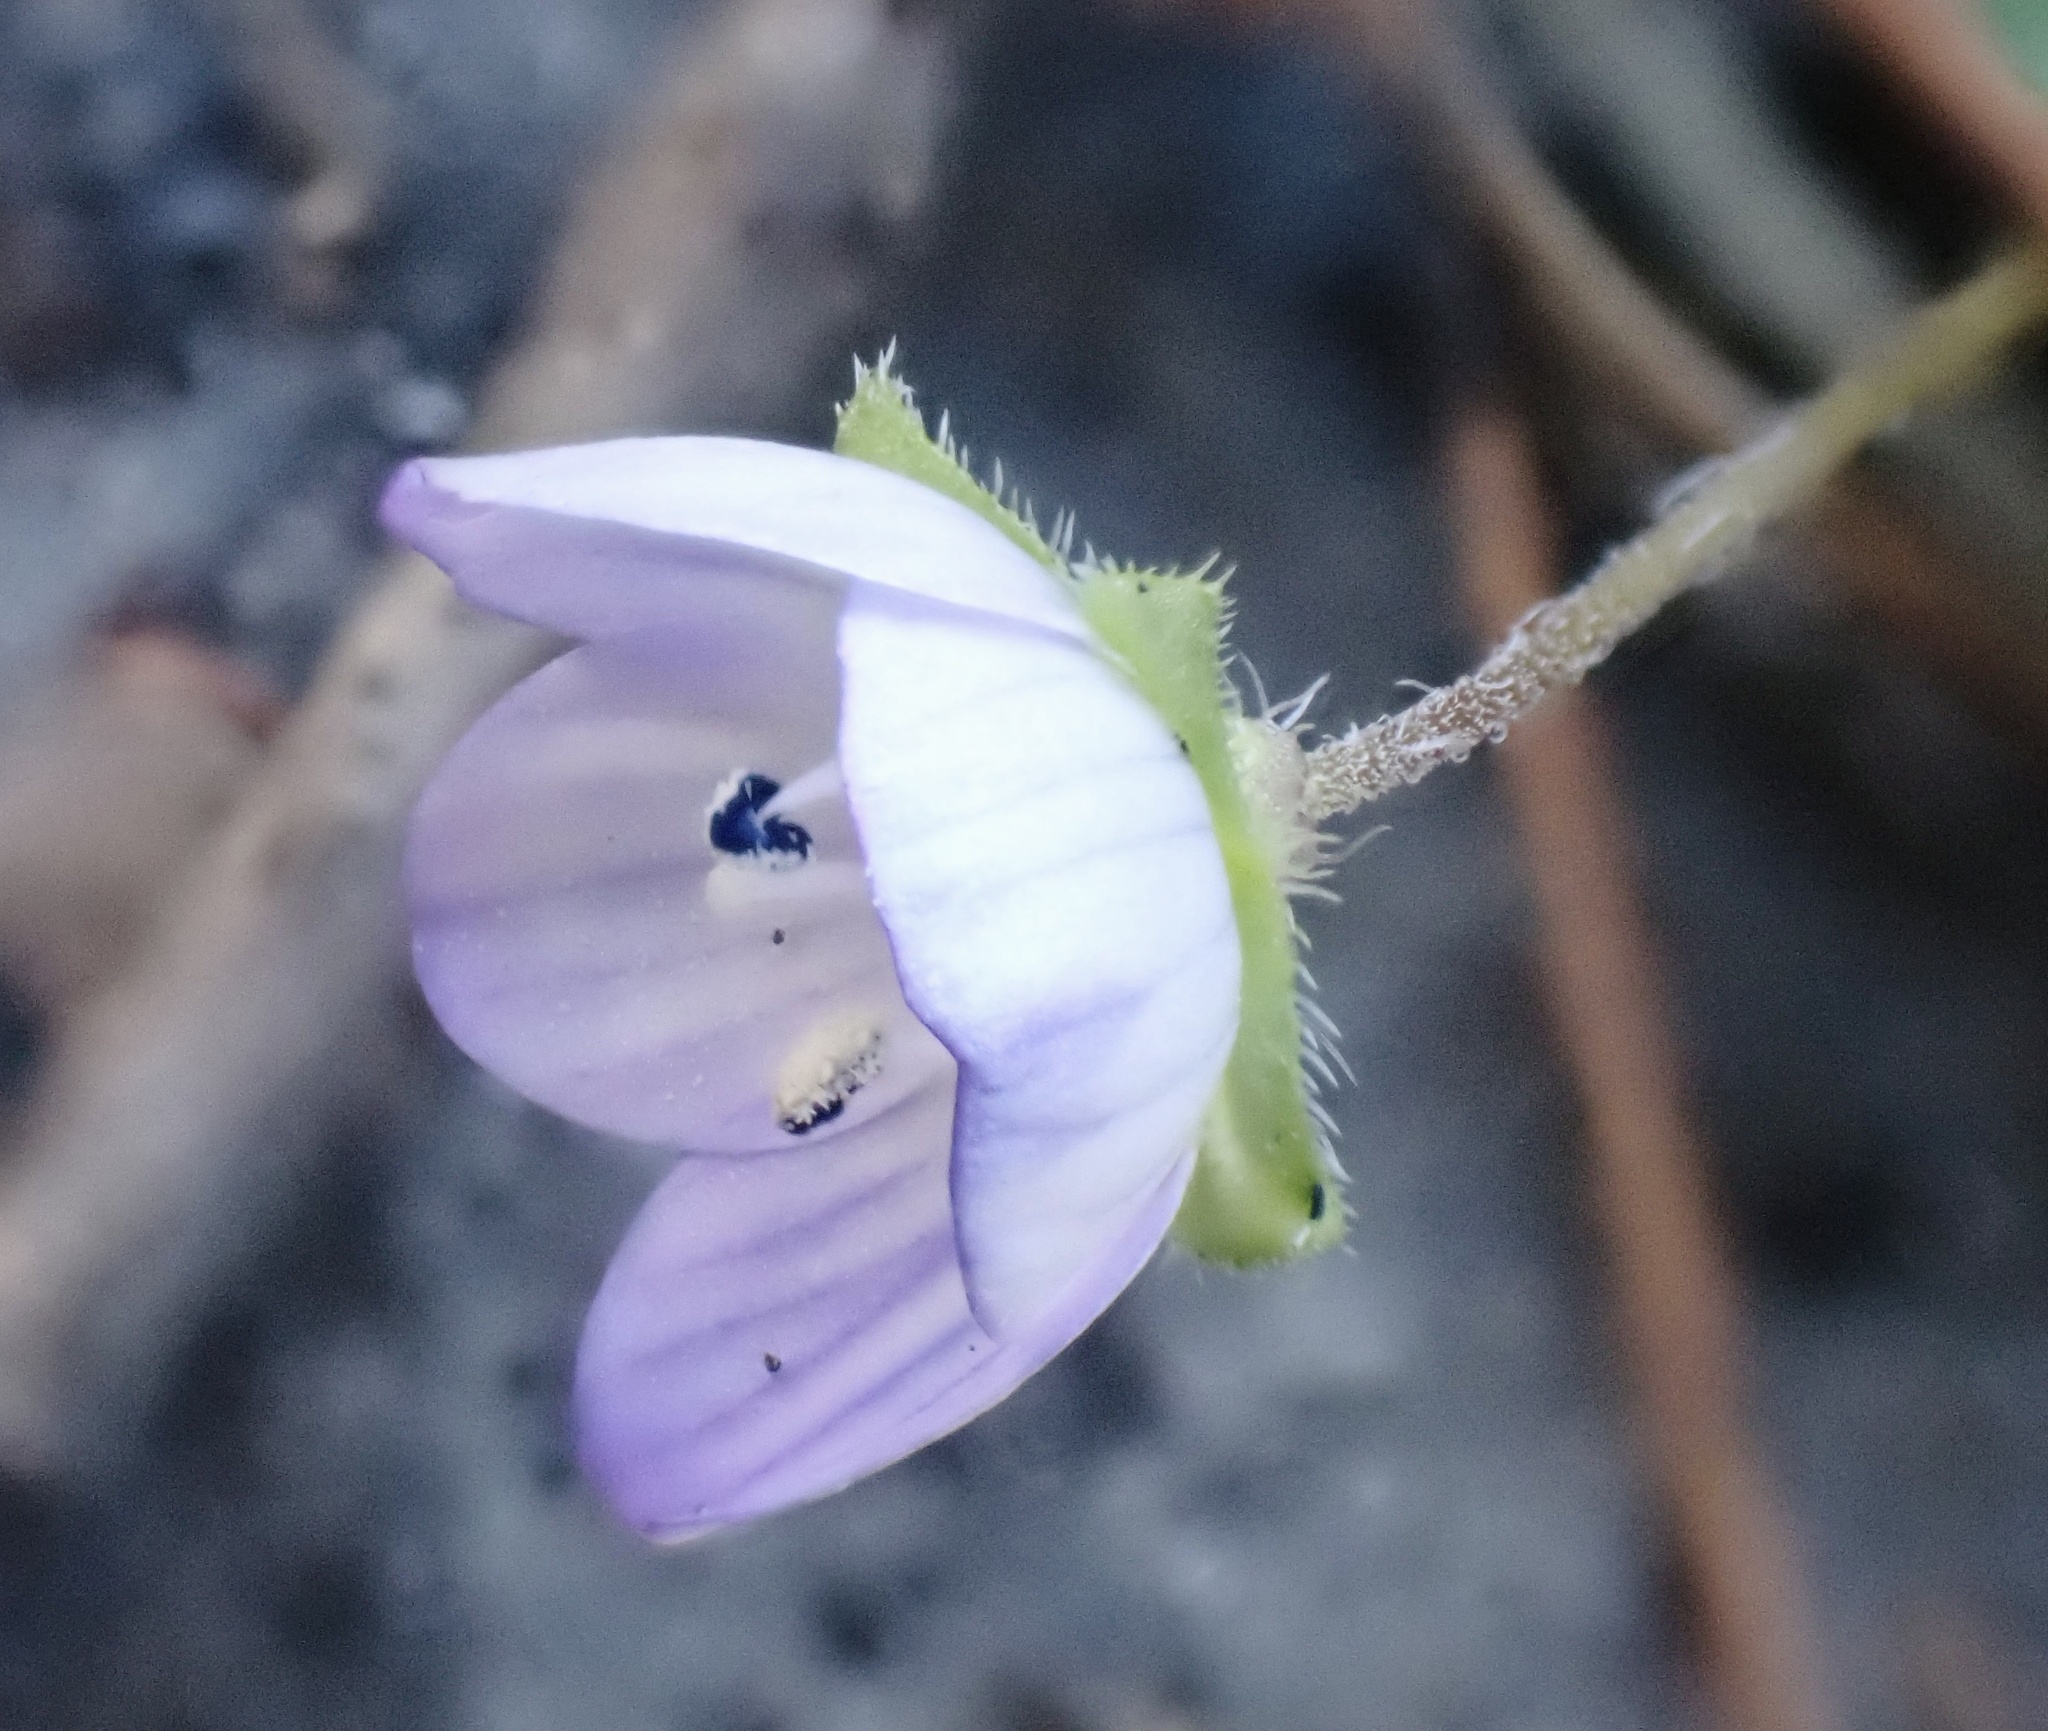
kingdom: Plantae
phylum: Tracheophyta
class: Magnoliopsida
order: Lamiales
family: Plantaginaceae
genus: Veronica
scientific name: Veronica persica
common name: Common field-speedwell
